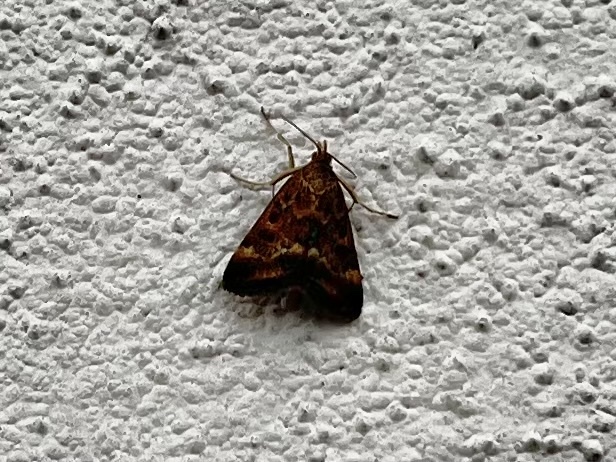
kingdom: Animalia
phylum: Arthropoda
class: Insecta
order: Lepidoptera
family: Crambidae
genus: Pyrausta
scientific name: Pyrausta despicata
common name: Straw-barred pearl
